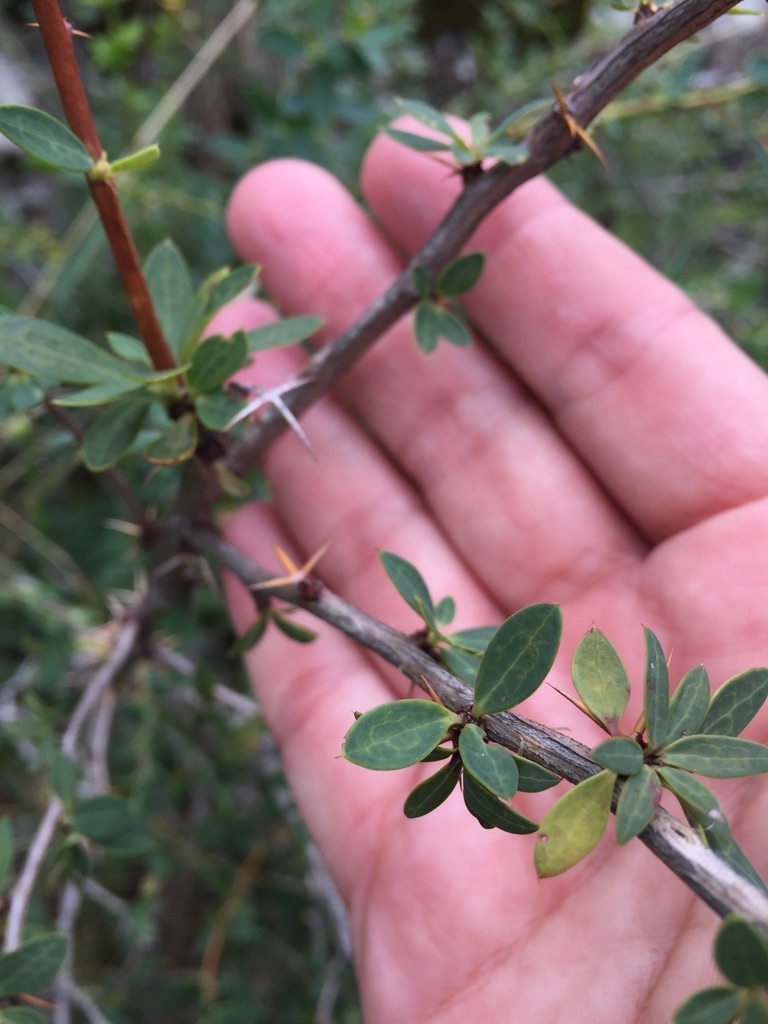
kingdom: Plantae
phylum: Tracheophyta
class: Magnoliopsida
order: Ranunculales
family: Berberidaceae
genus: Berberis
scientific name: Berberis hieronymi
